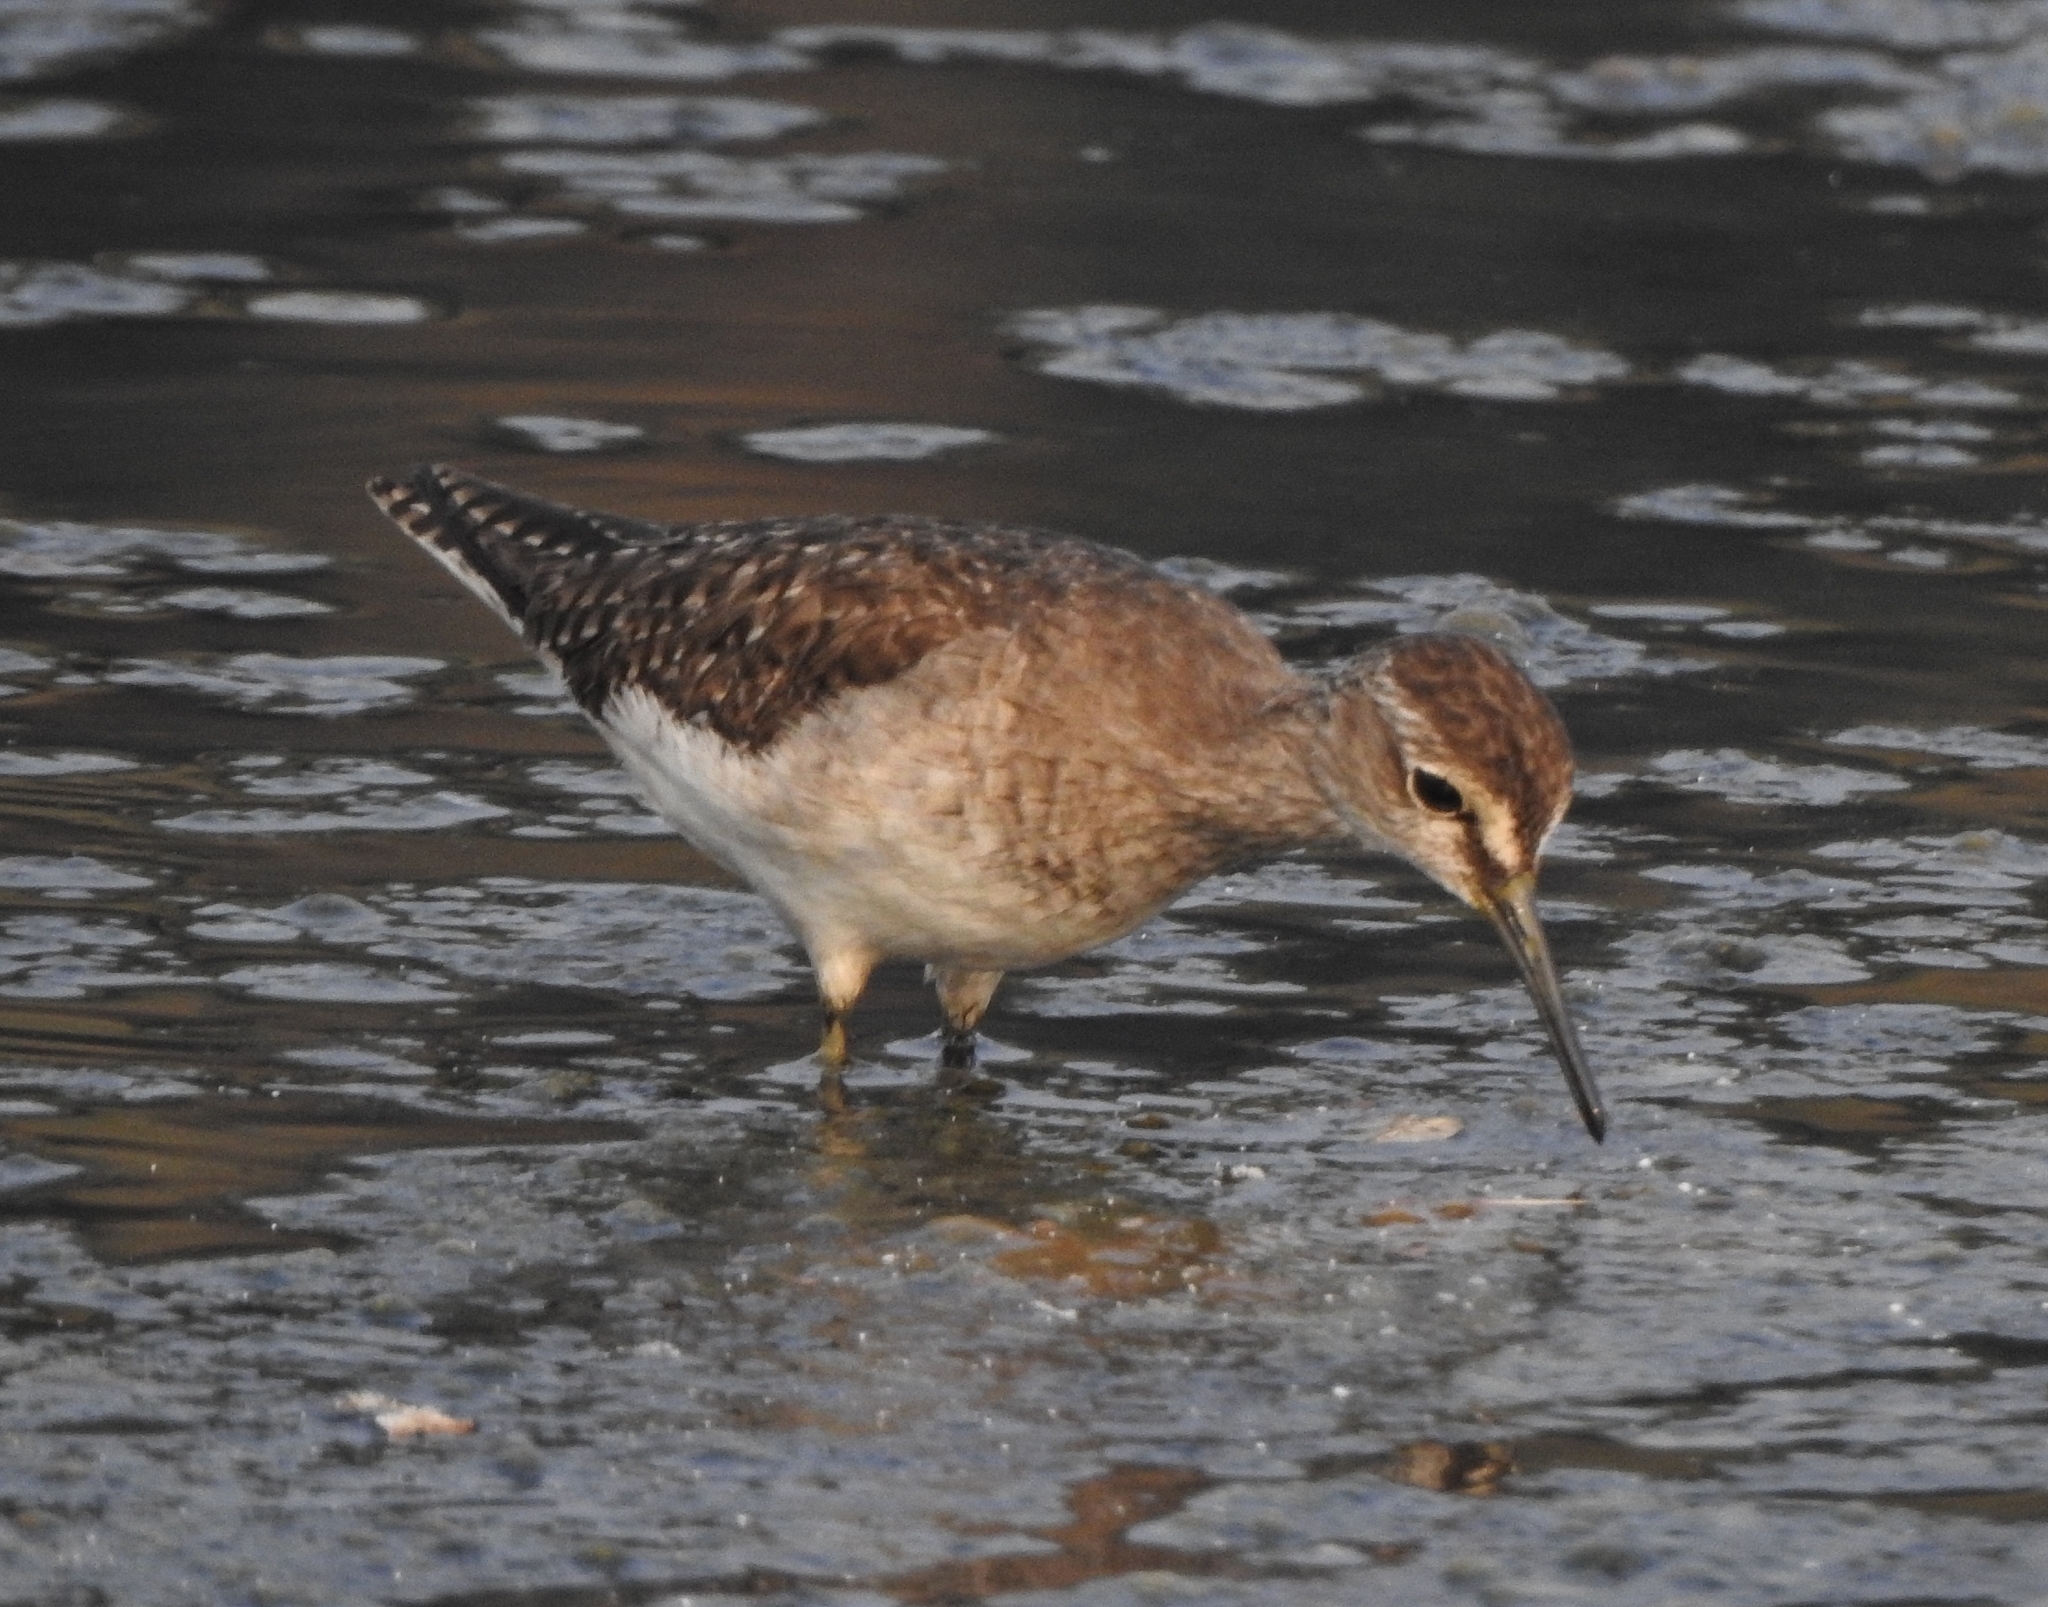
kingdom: Animalia
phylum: Chordata
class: Aves
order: Charadriiformes
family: Scolopacidae
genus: Tringa
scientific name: Tringa glareola
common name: Wood sandpiper
